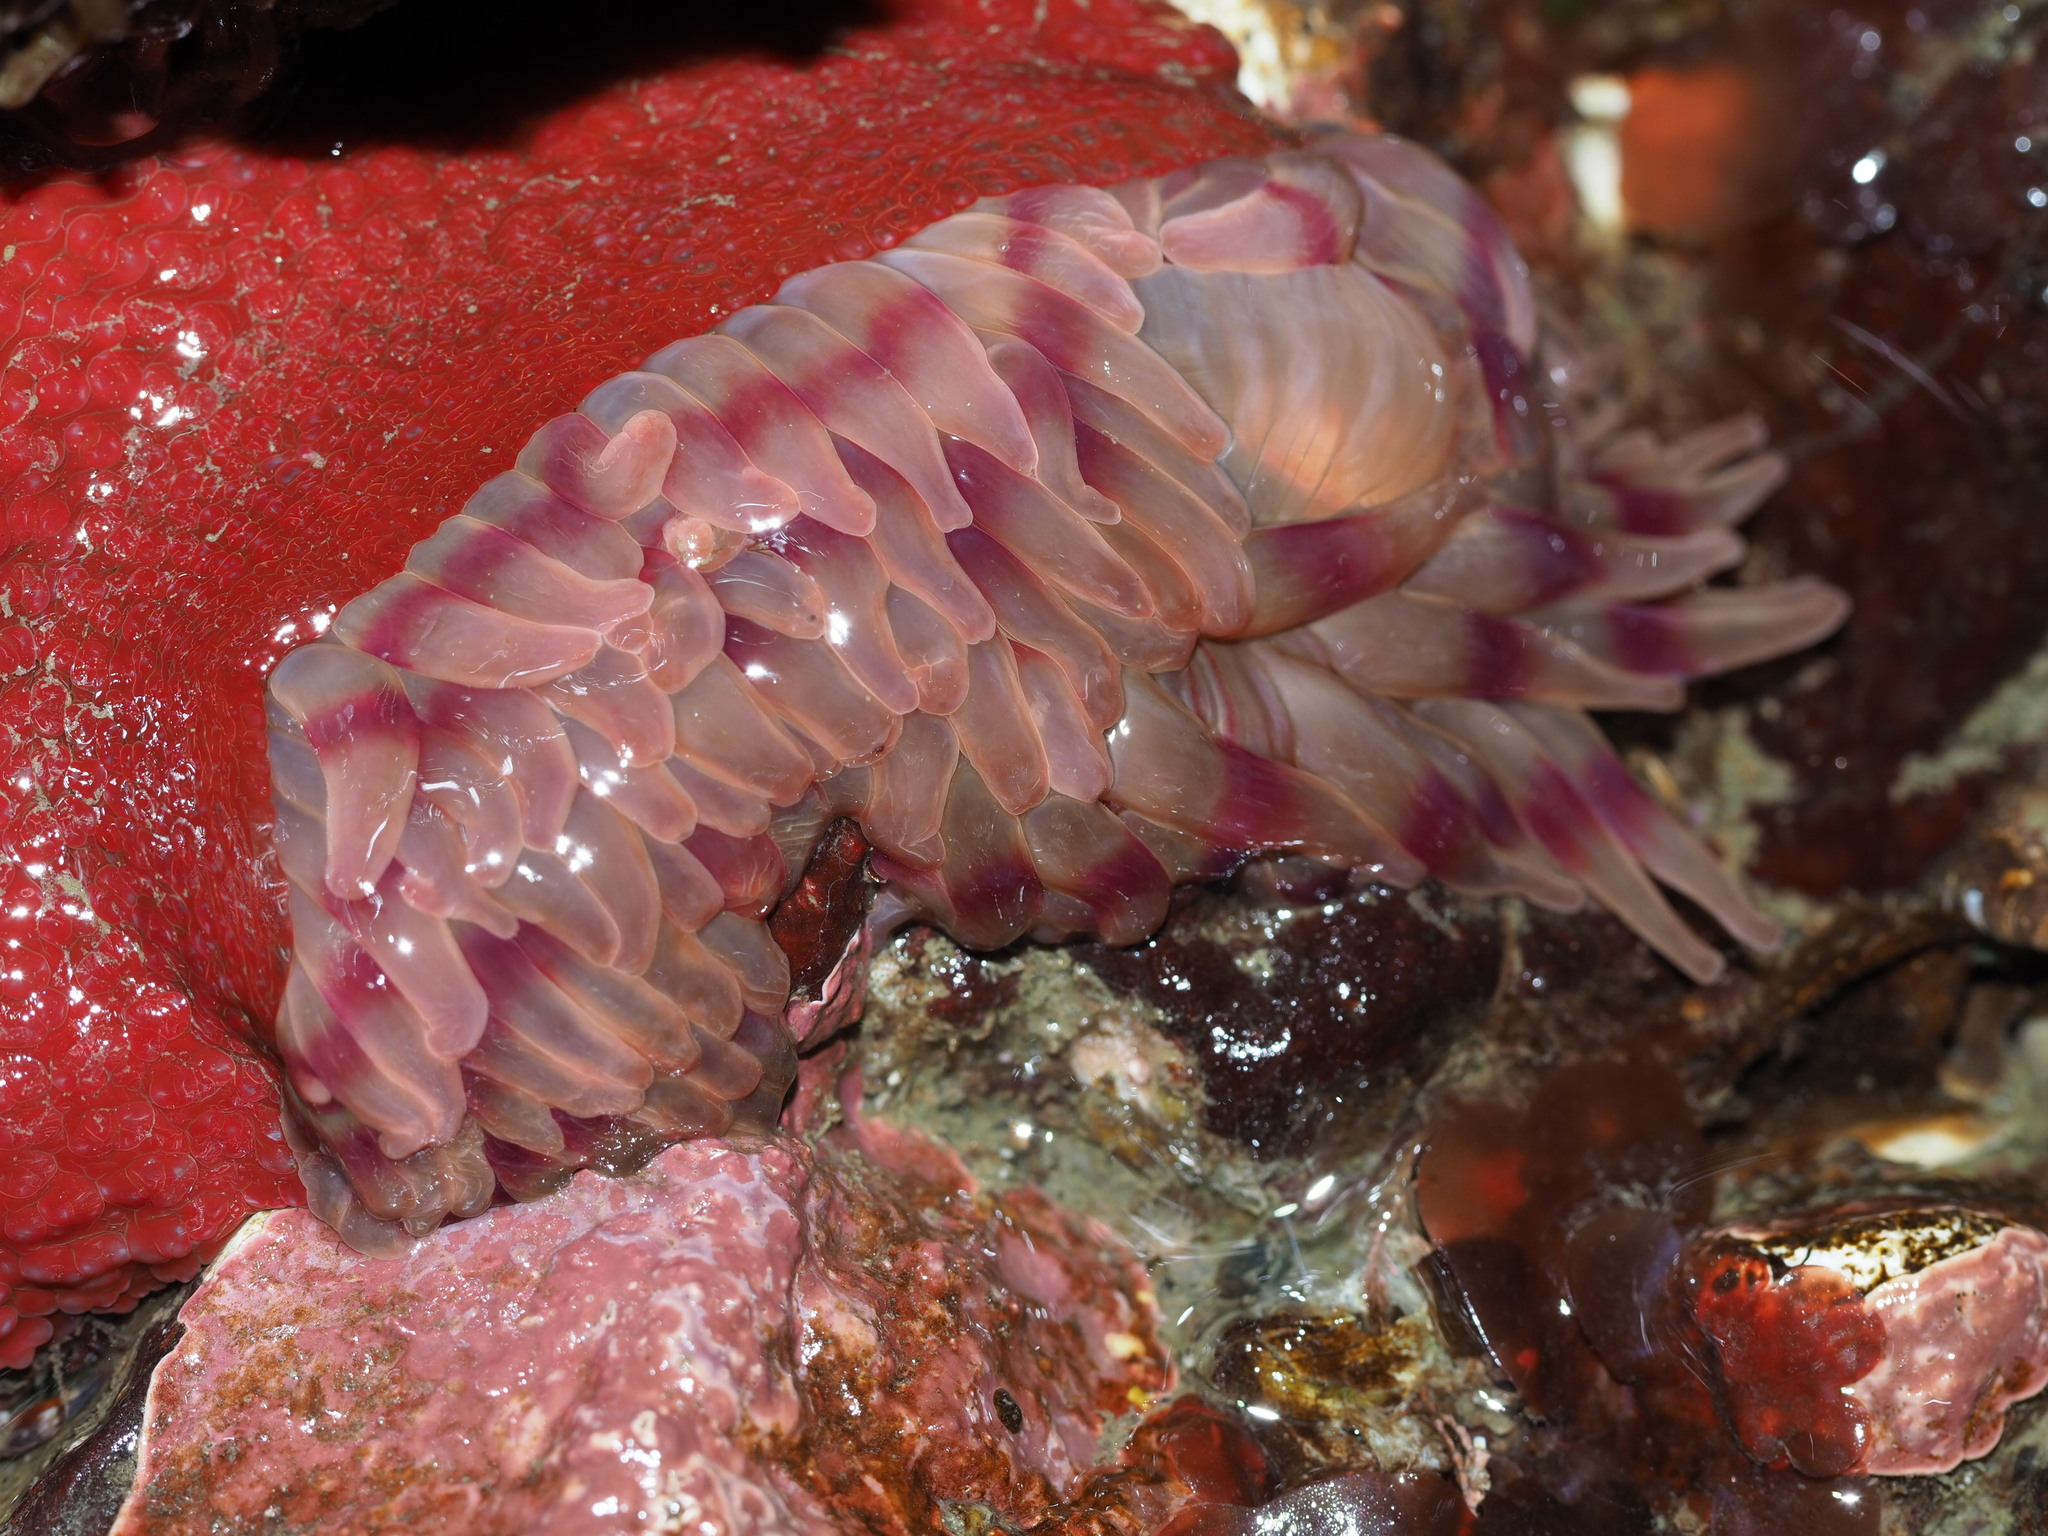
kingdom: Animalia
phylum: Cnidaria
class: Anthozoa
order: Actiniaria
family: Actiniidae
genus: Urticina
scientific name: Urticina grebelnyi
